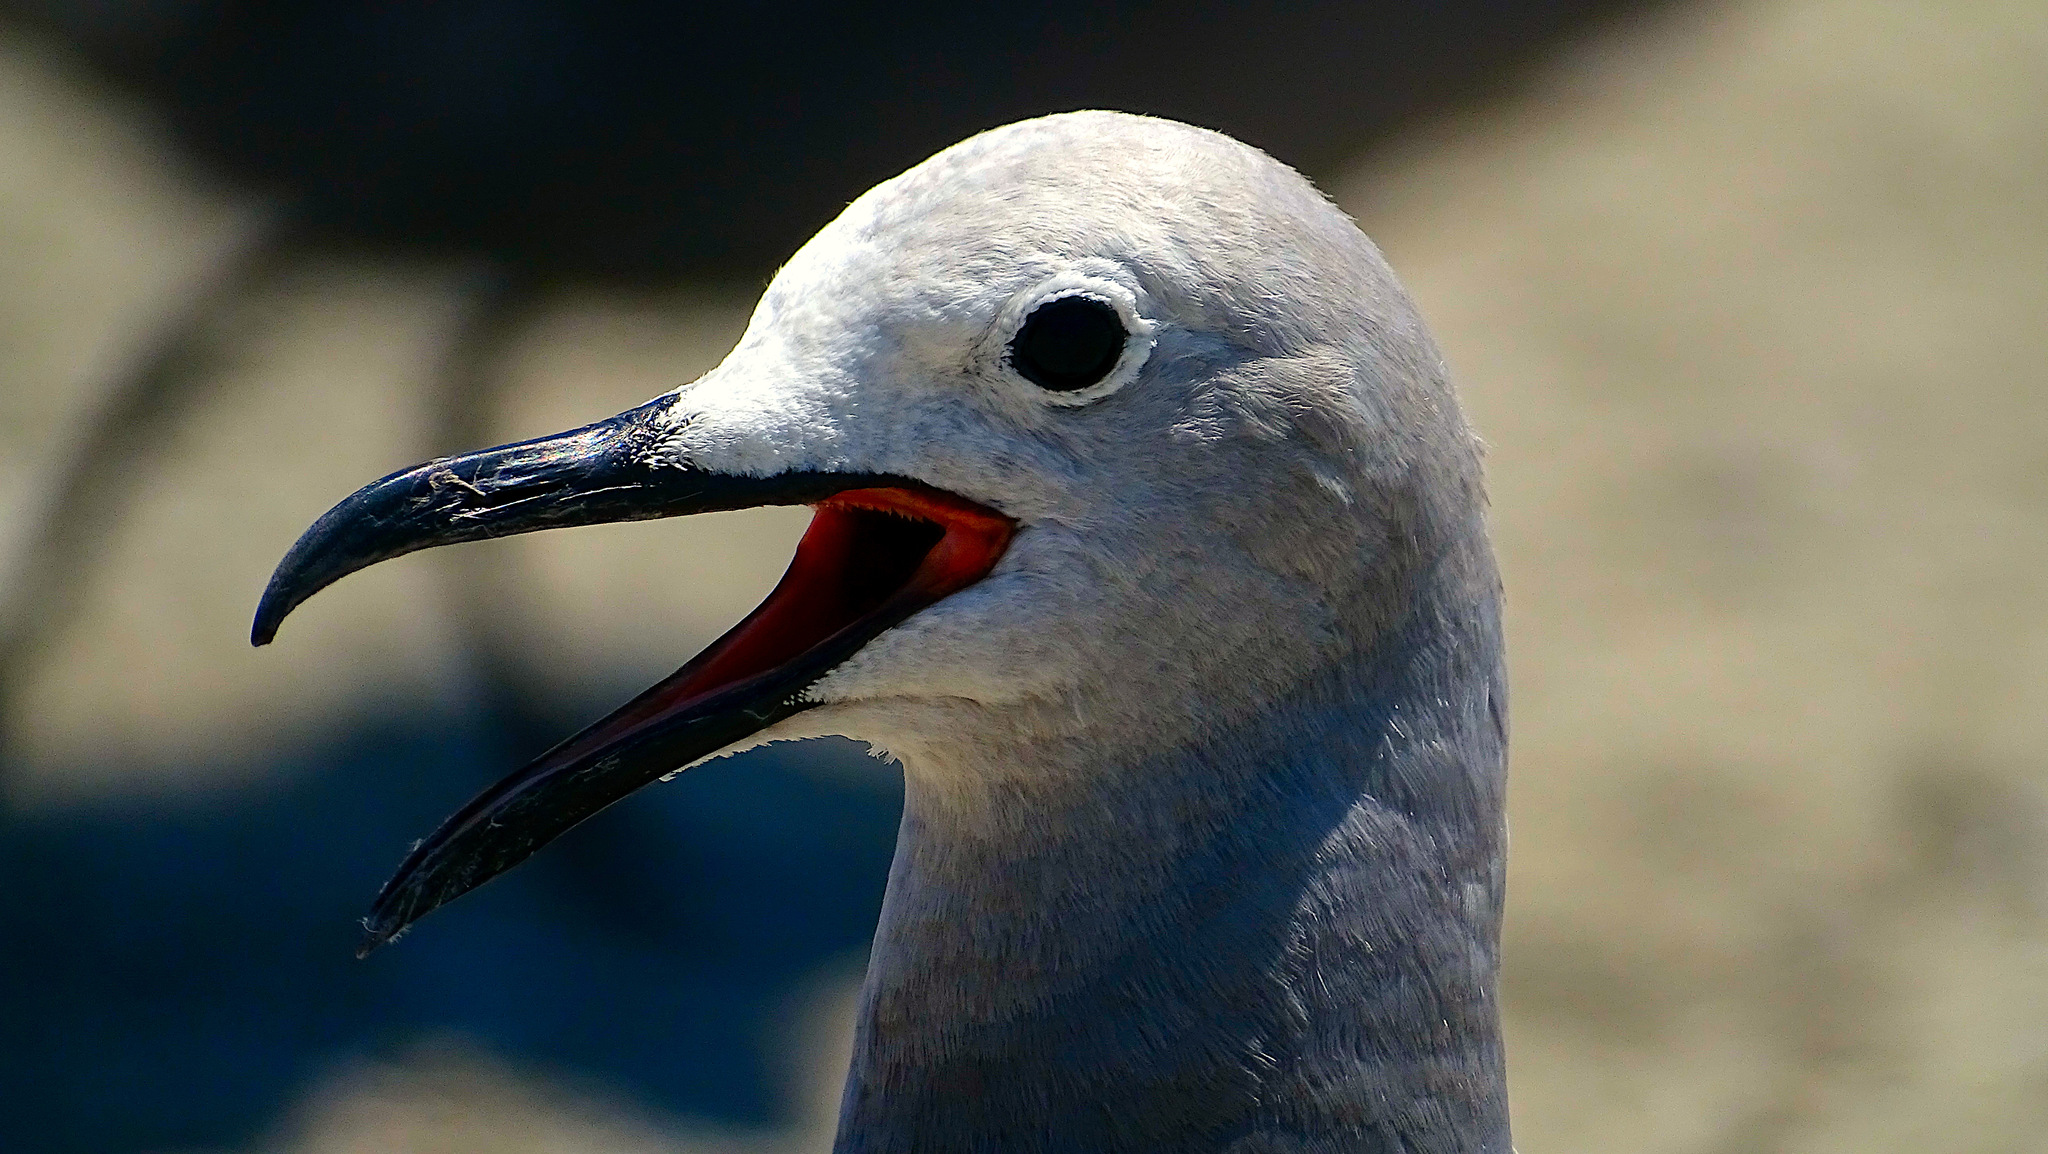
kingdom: Animalia
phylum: Chordata
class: Aves
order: Charadriiformes
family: Laridae
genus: Leucophaeus
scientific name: Leucophaeus modestus
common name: Gray gull
